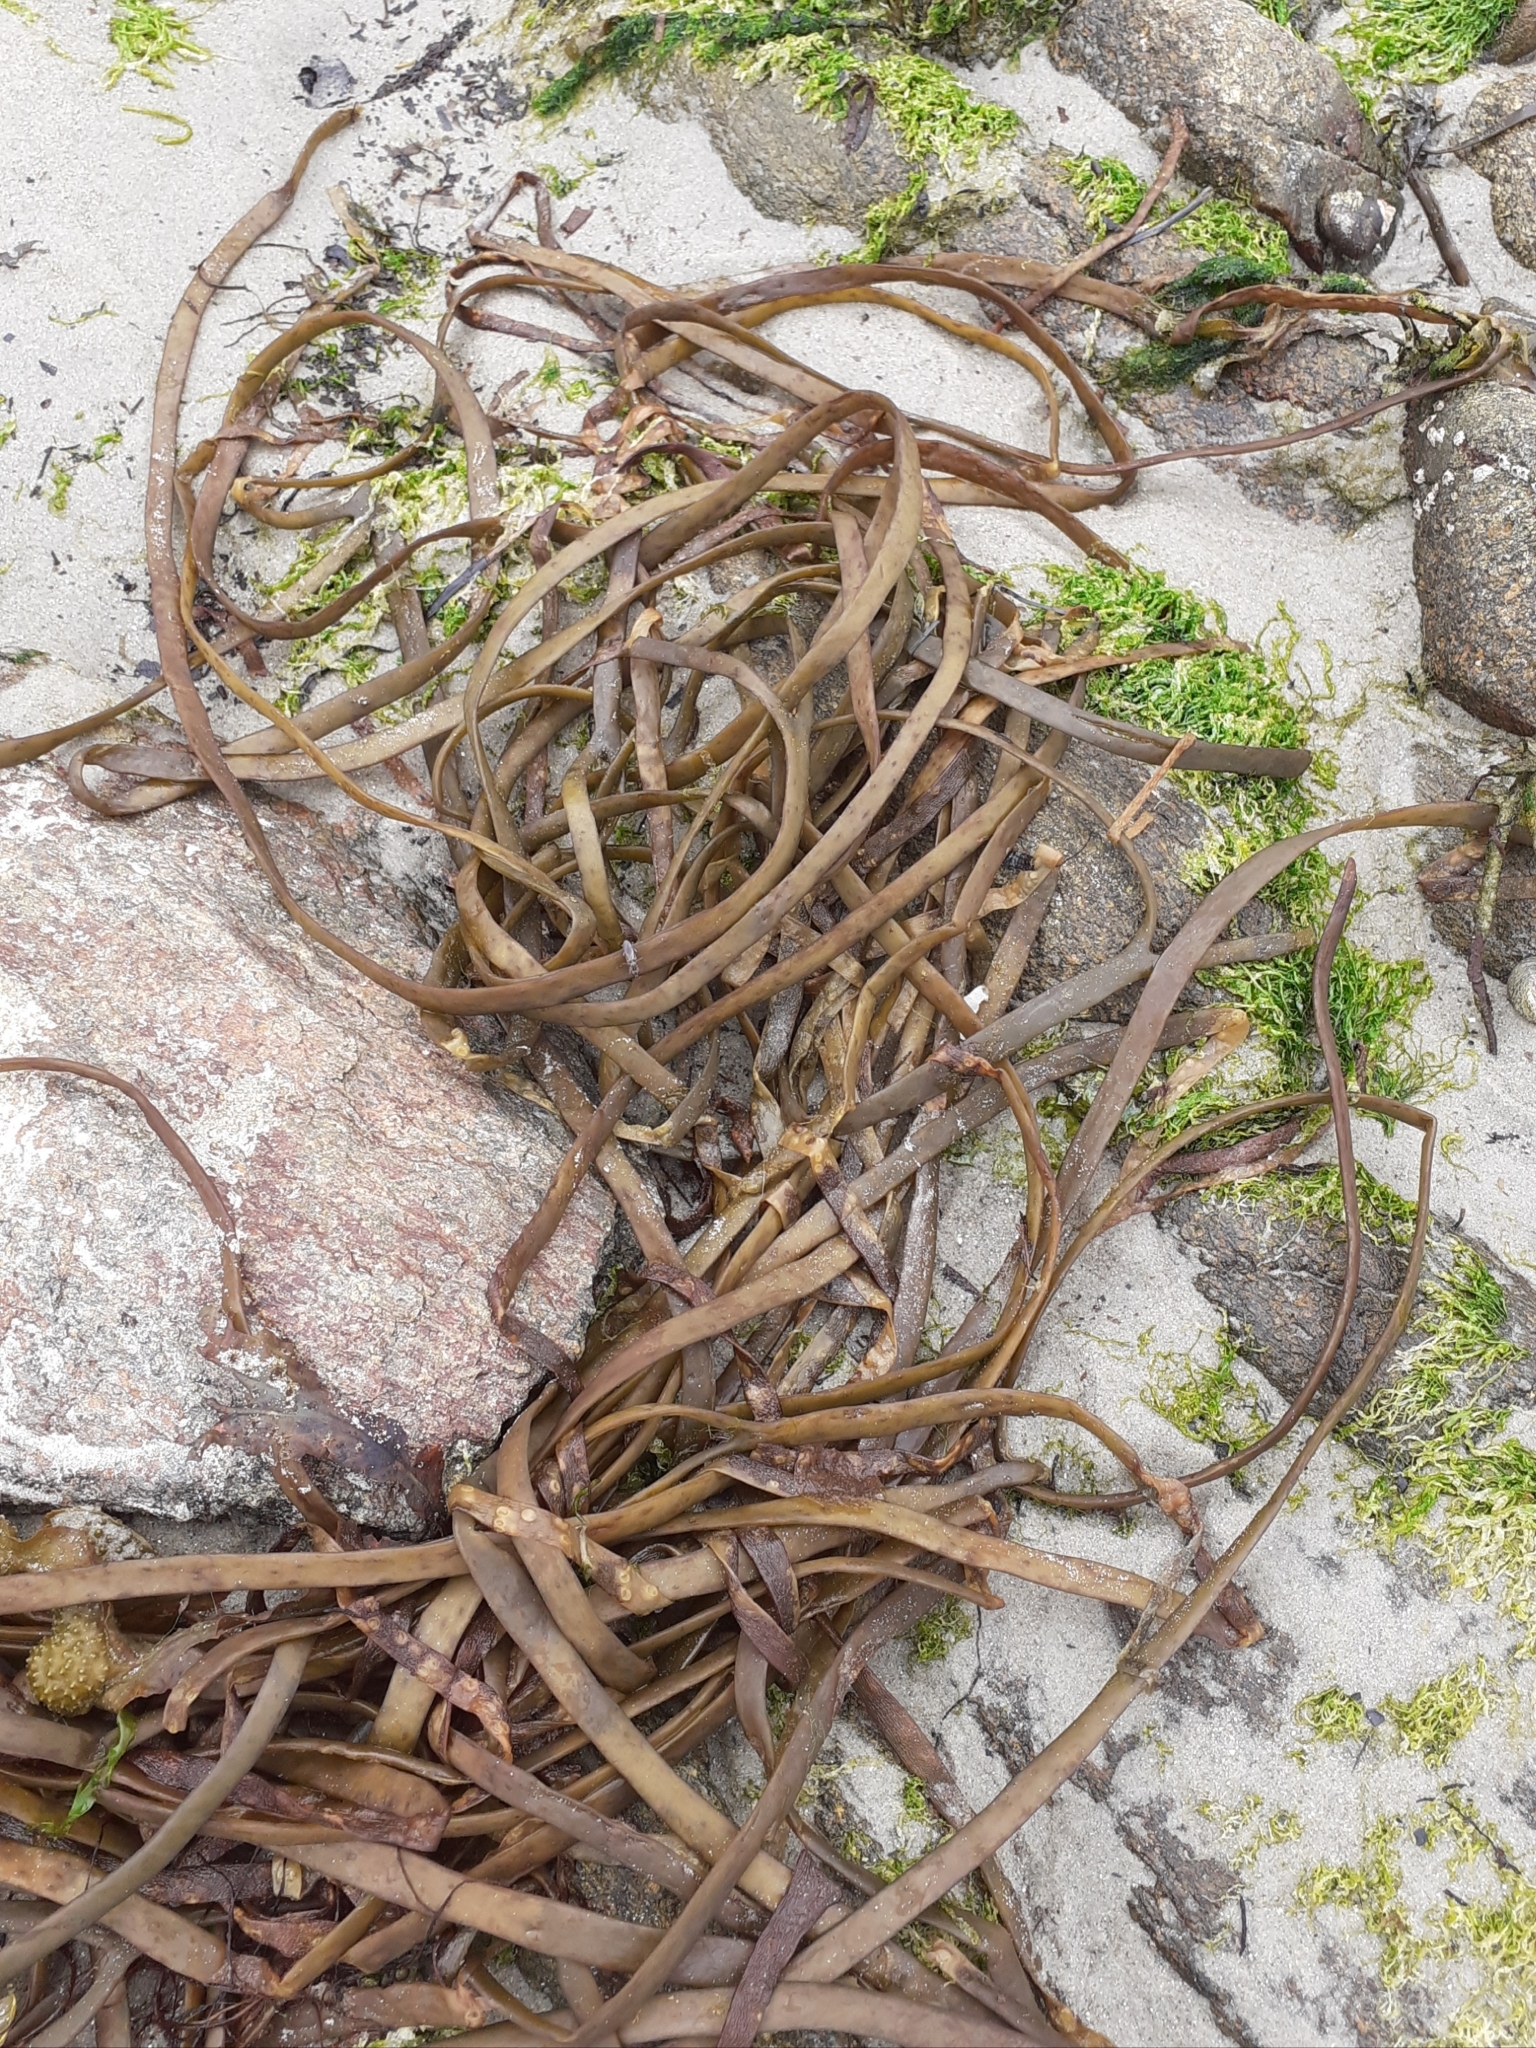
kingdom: Chromista
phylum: Ochrophyta
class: Phaeophyceae
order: Fucales
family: Himanthaliaceae
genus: Himanthalia
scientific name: Himanthalia elongata
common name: Sea-thong
